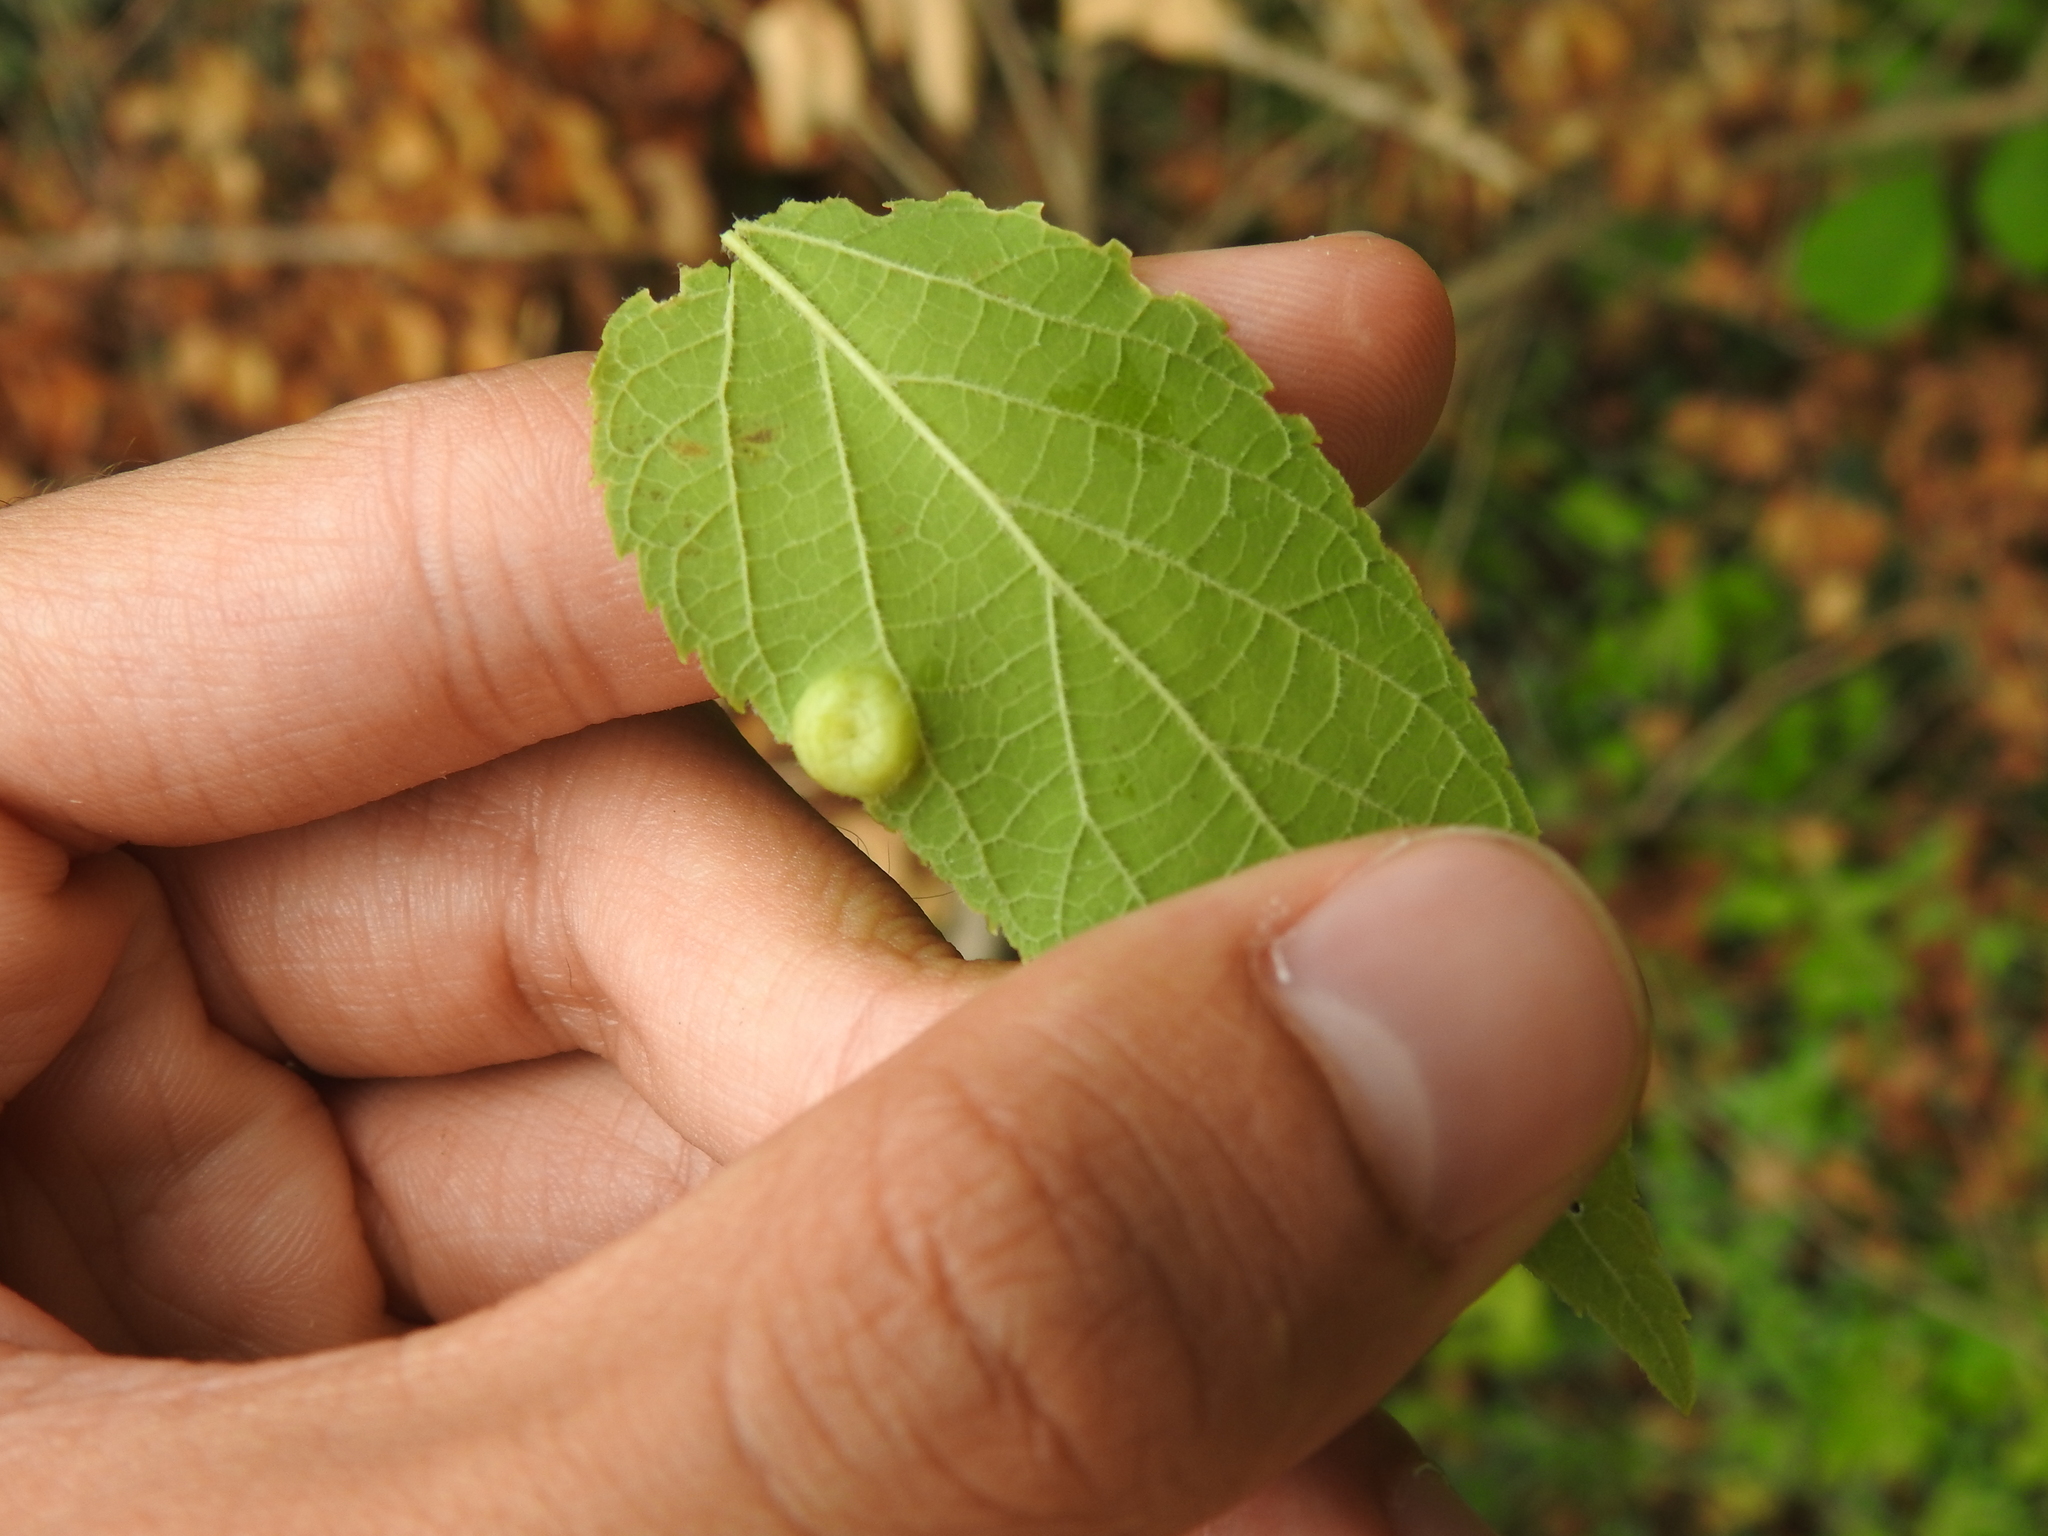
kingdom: Animalia
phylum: Arthropoda
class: Insecta
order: Hemiptera
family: Aphalaridae
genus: Pachypsylla
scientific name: Pachypsylla celtidisumbilicus
